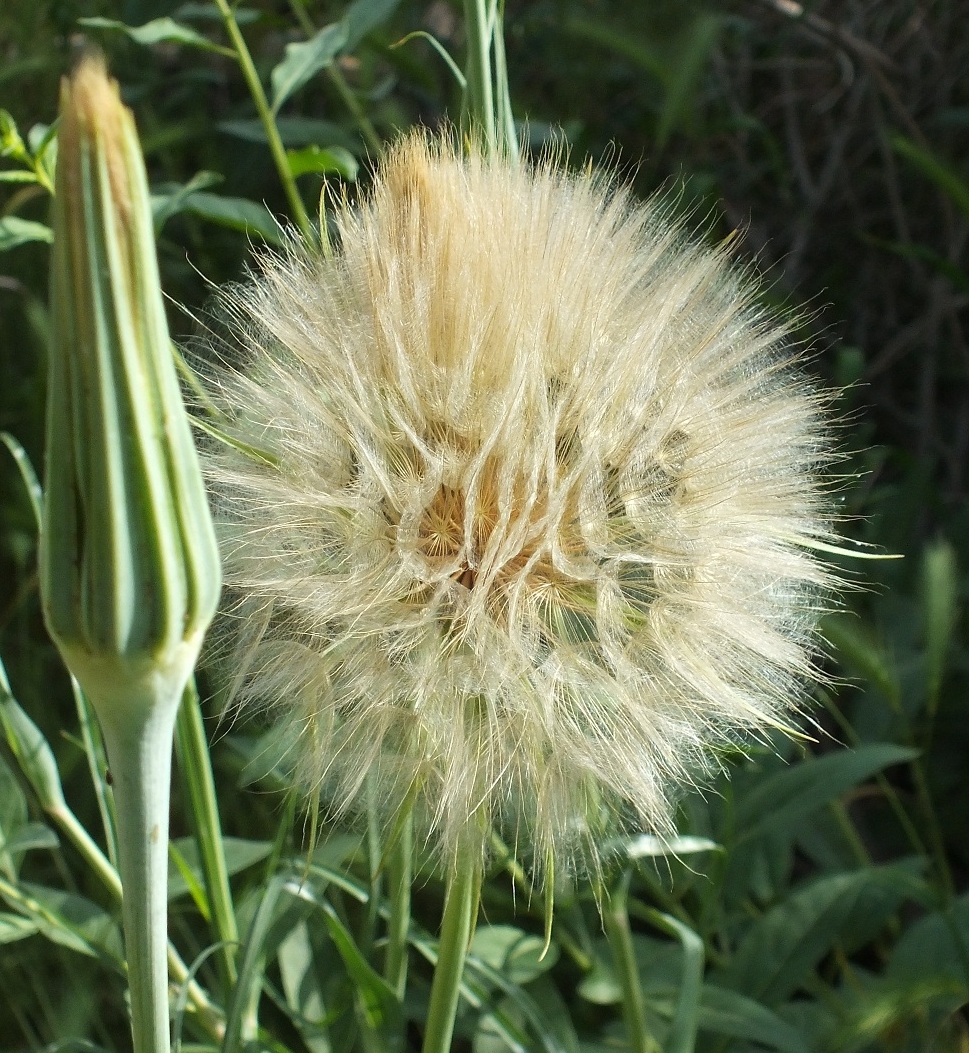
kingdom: Plantae
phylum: Tracheophyta
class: Magnoliopsida
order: Asterales
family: Asteraceae
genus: Tragopogon
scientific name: Tragopogon dubius
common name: Yellow salsify
